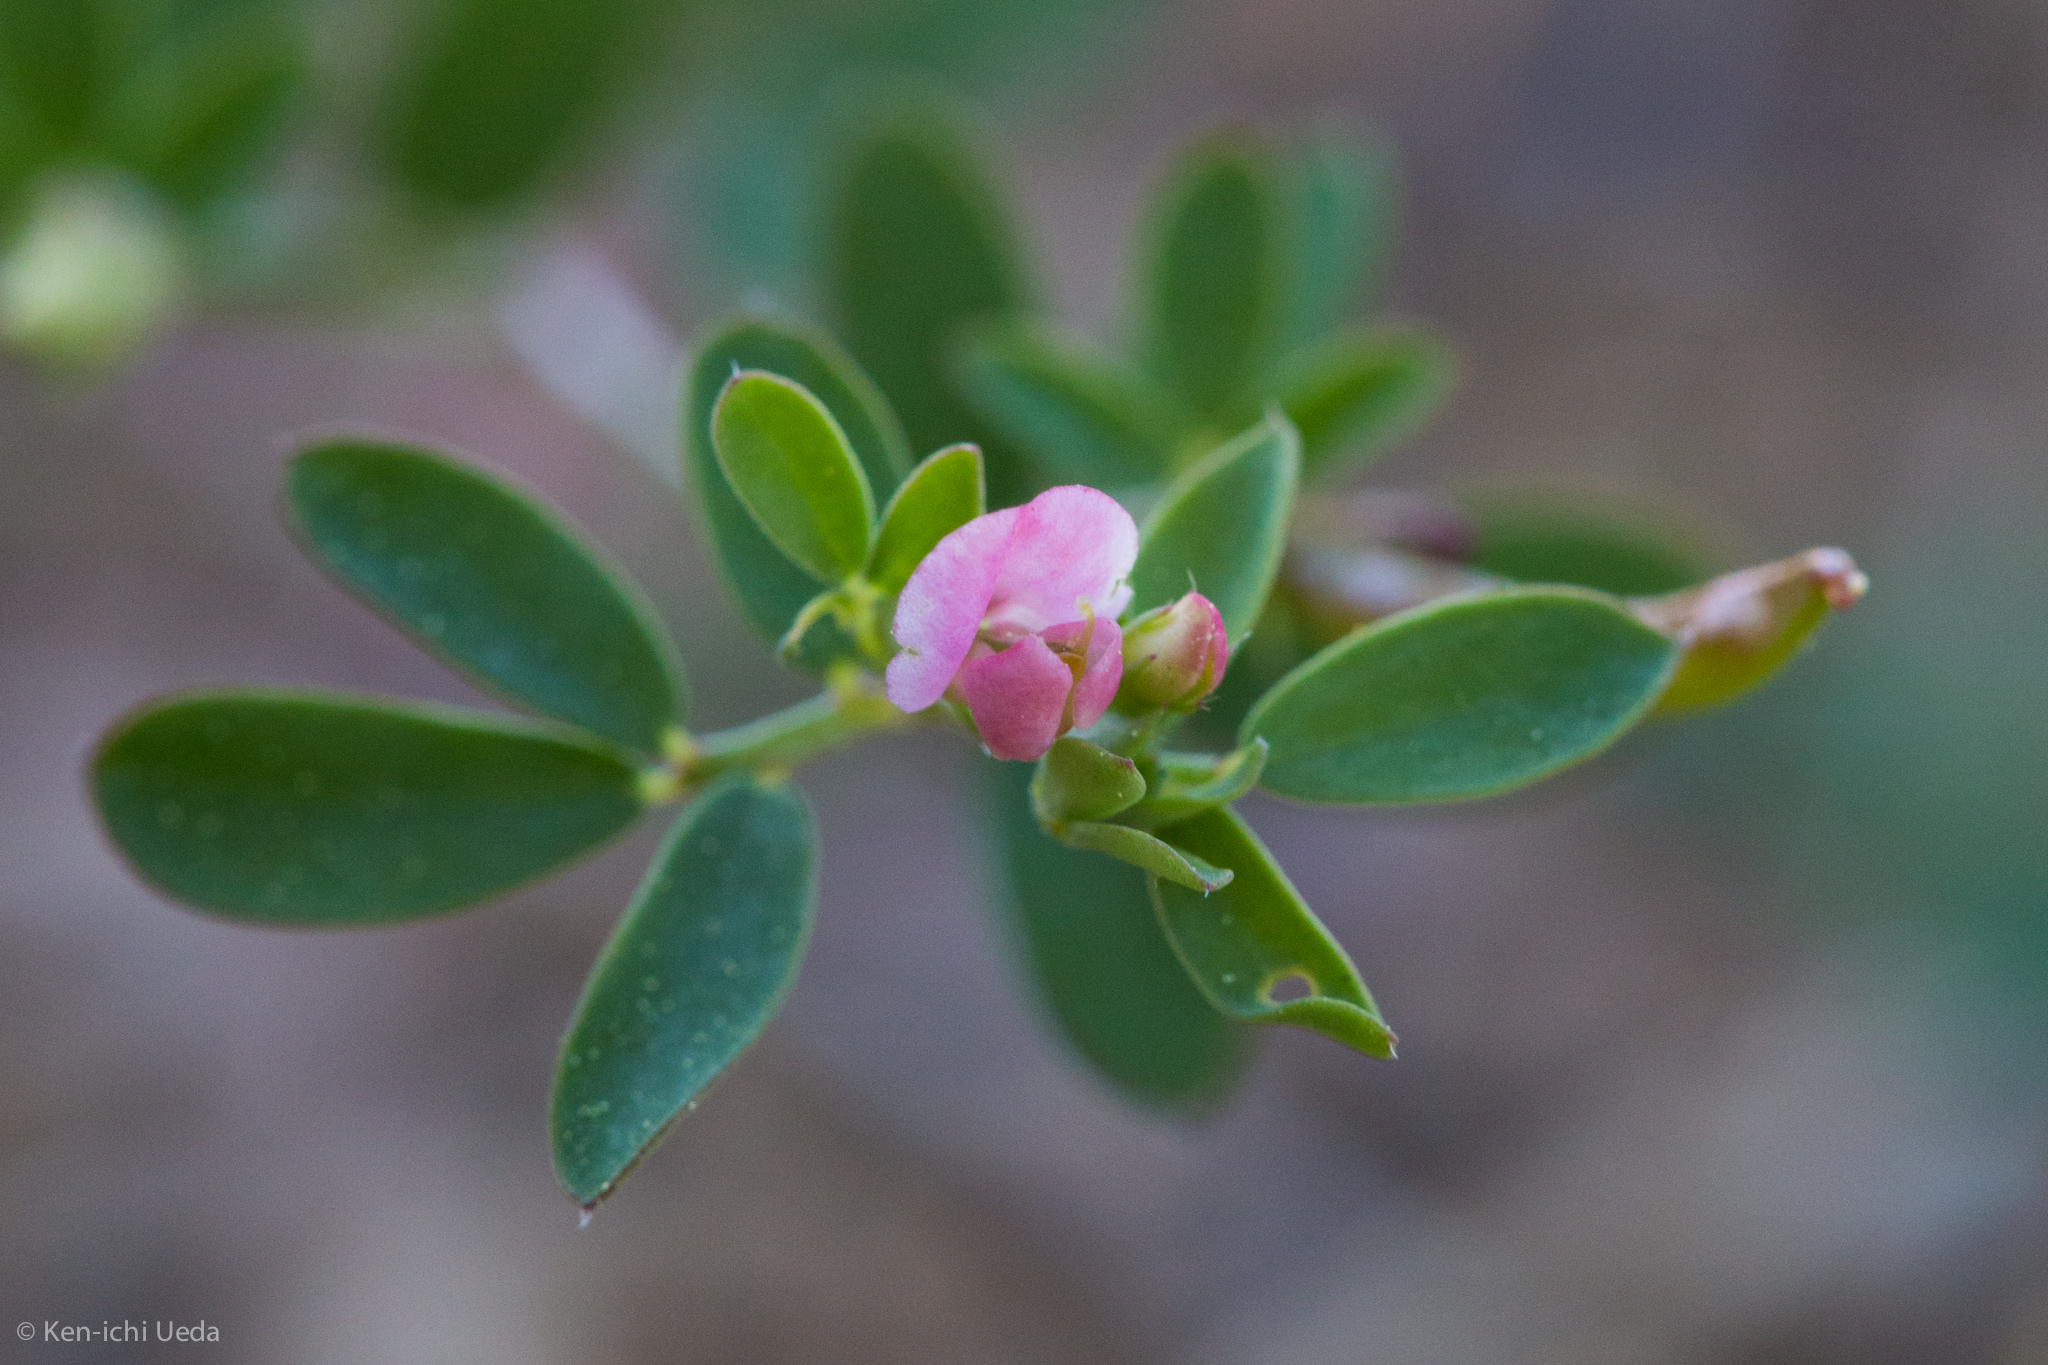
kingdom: Plantae
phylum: Tracheophyta
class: Magnoliopsida
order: Fabales
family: Fabaceae
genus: Acmispon
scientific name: Acmispon parviflorus
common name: Desert deer-vetch
